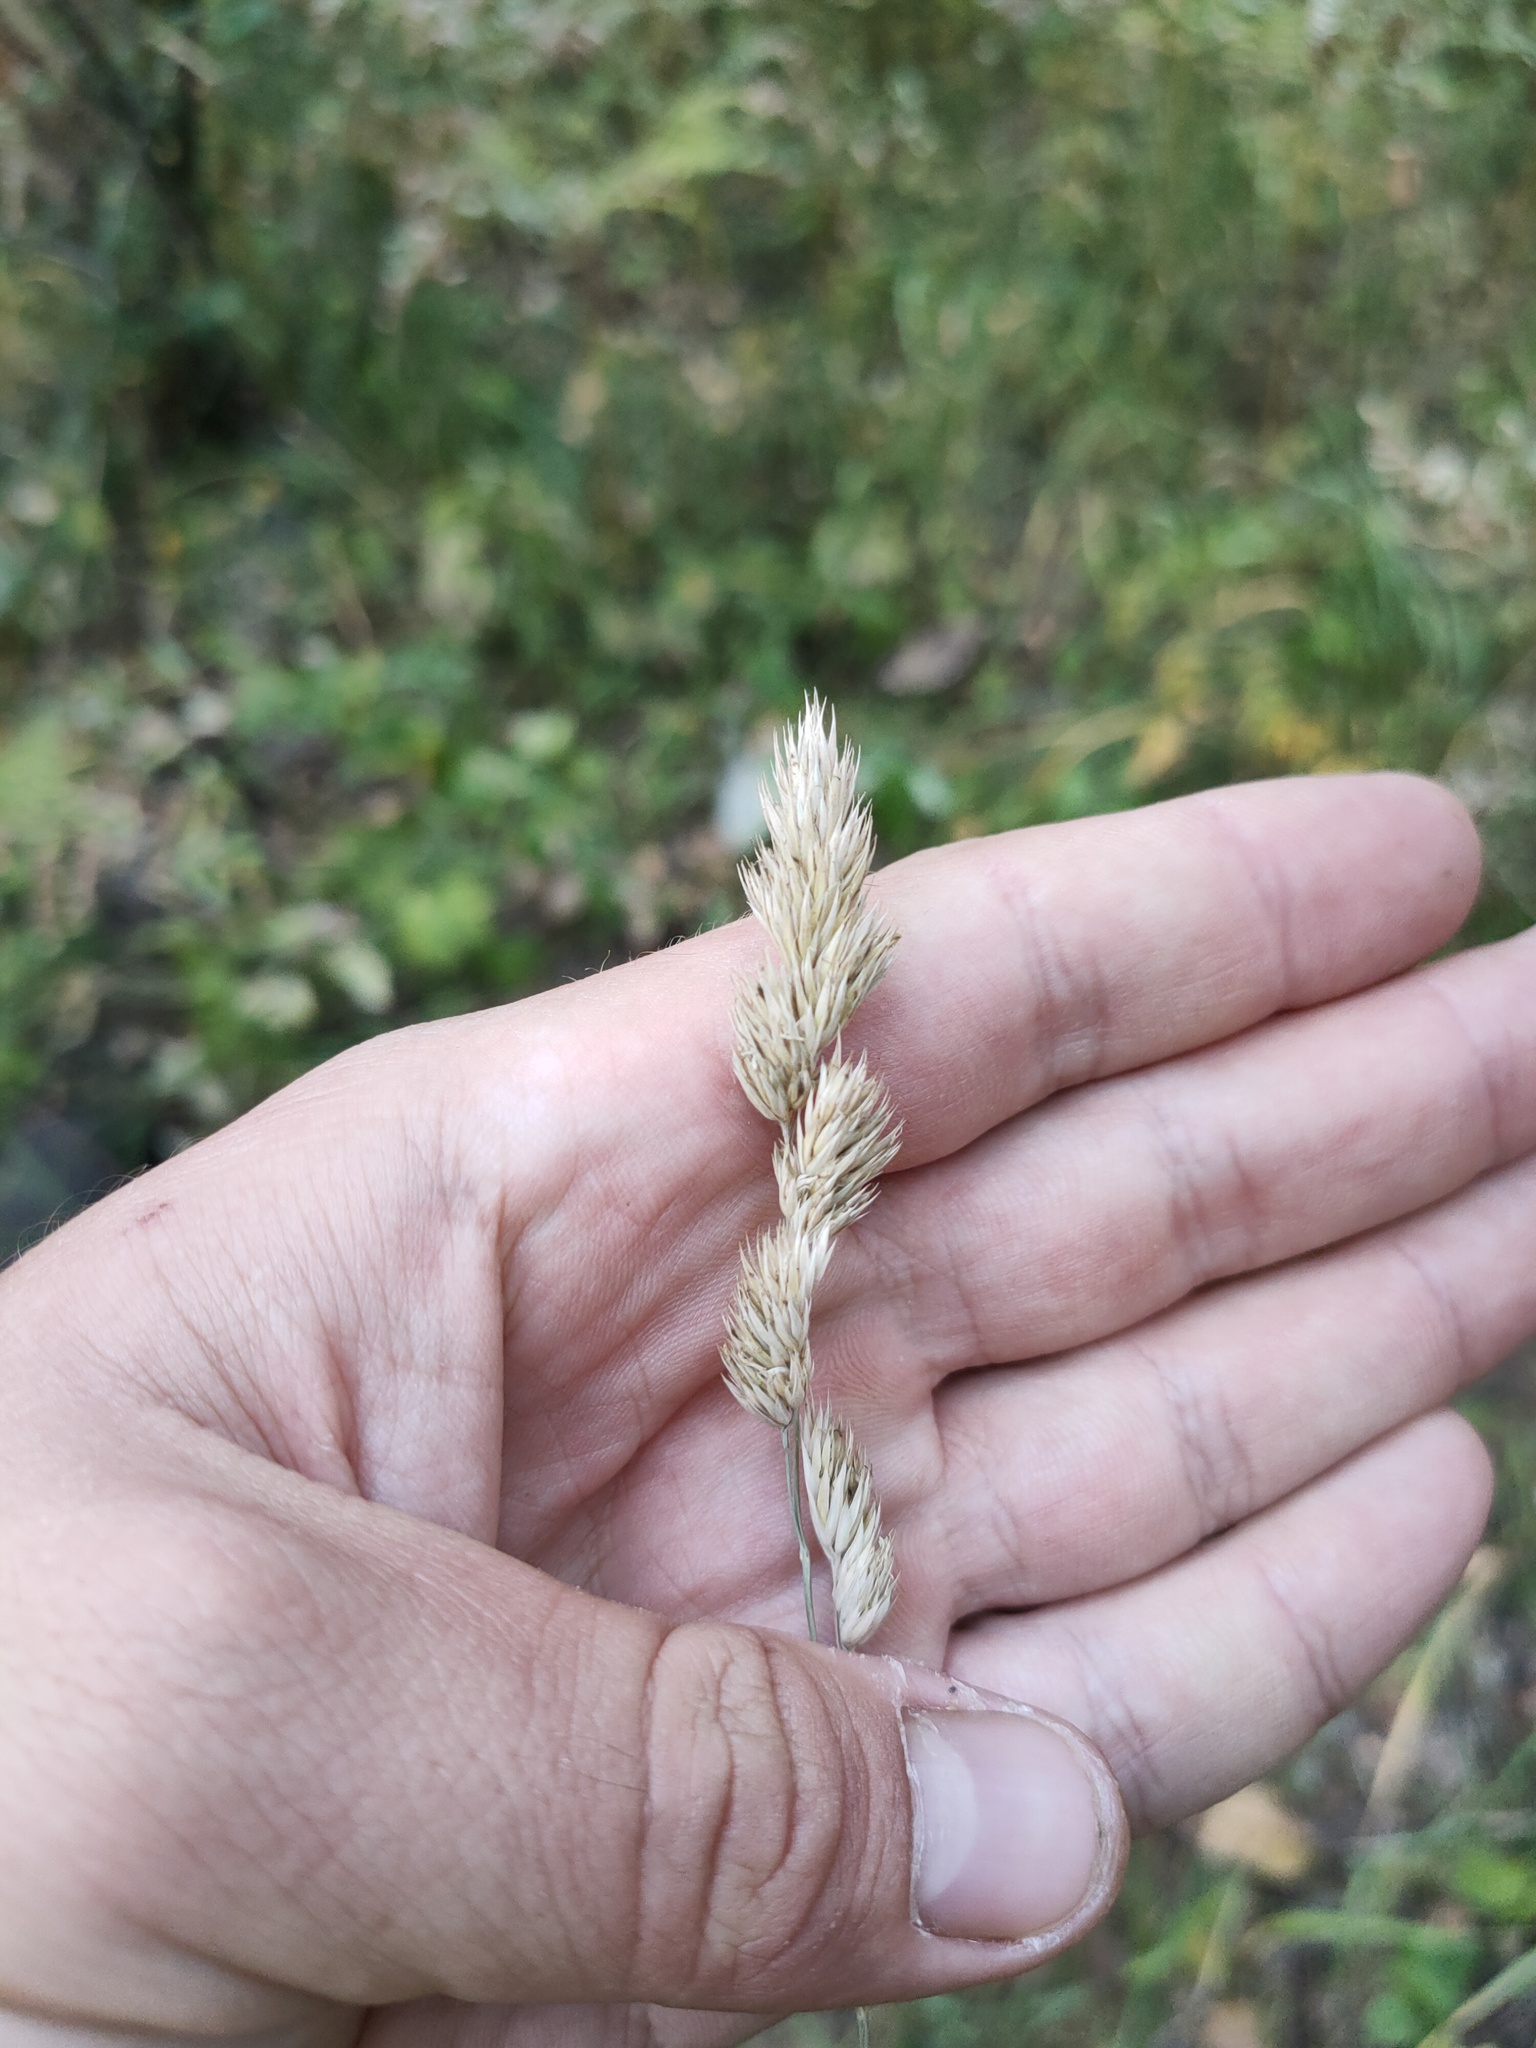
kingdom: Plantae
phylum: Tracheophyta
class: Liliopsida
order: Poales
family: Poaceae
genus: Dactylis
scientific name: Dactylis glomerata
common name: Orchardgrass
